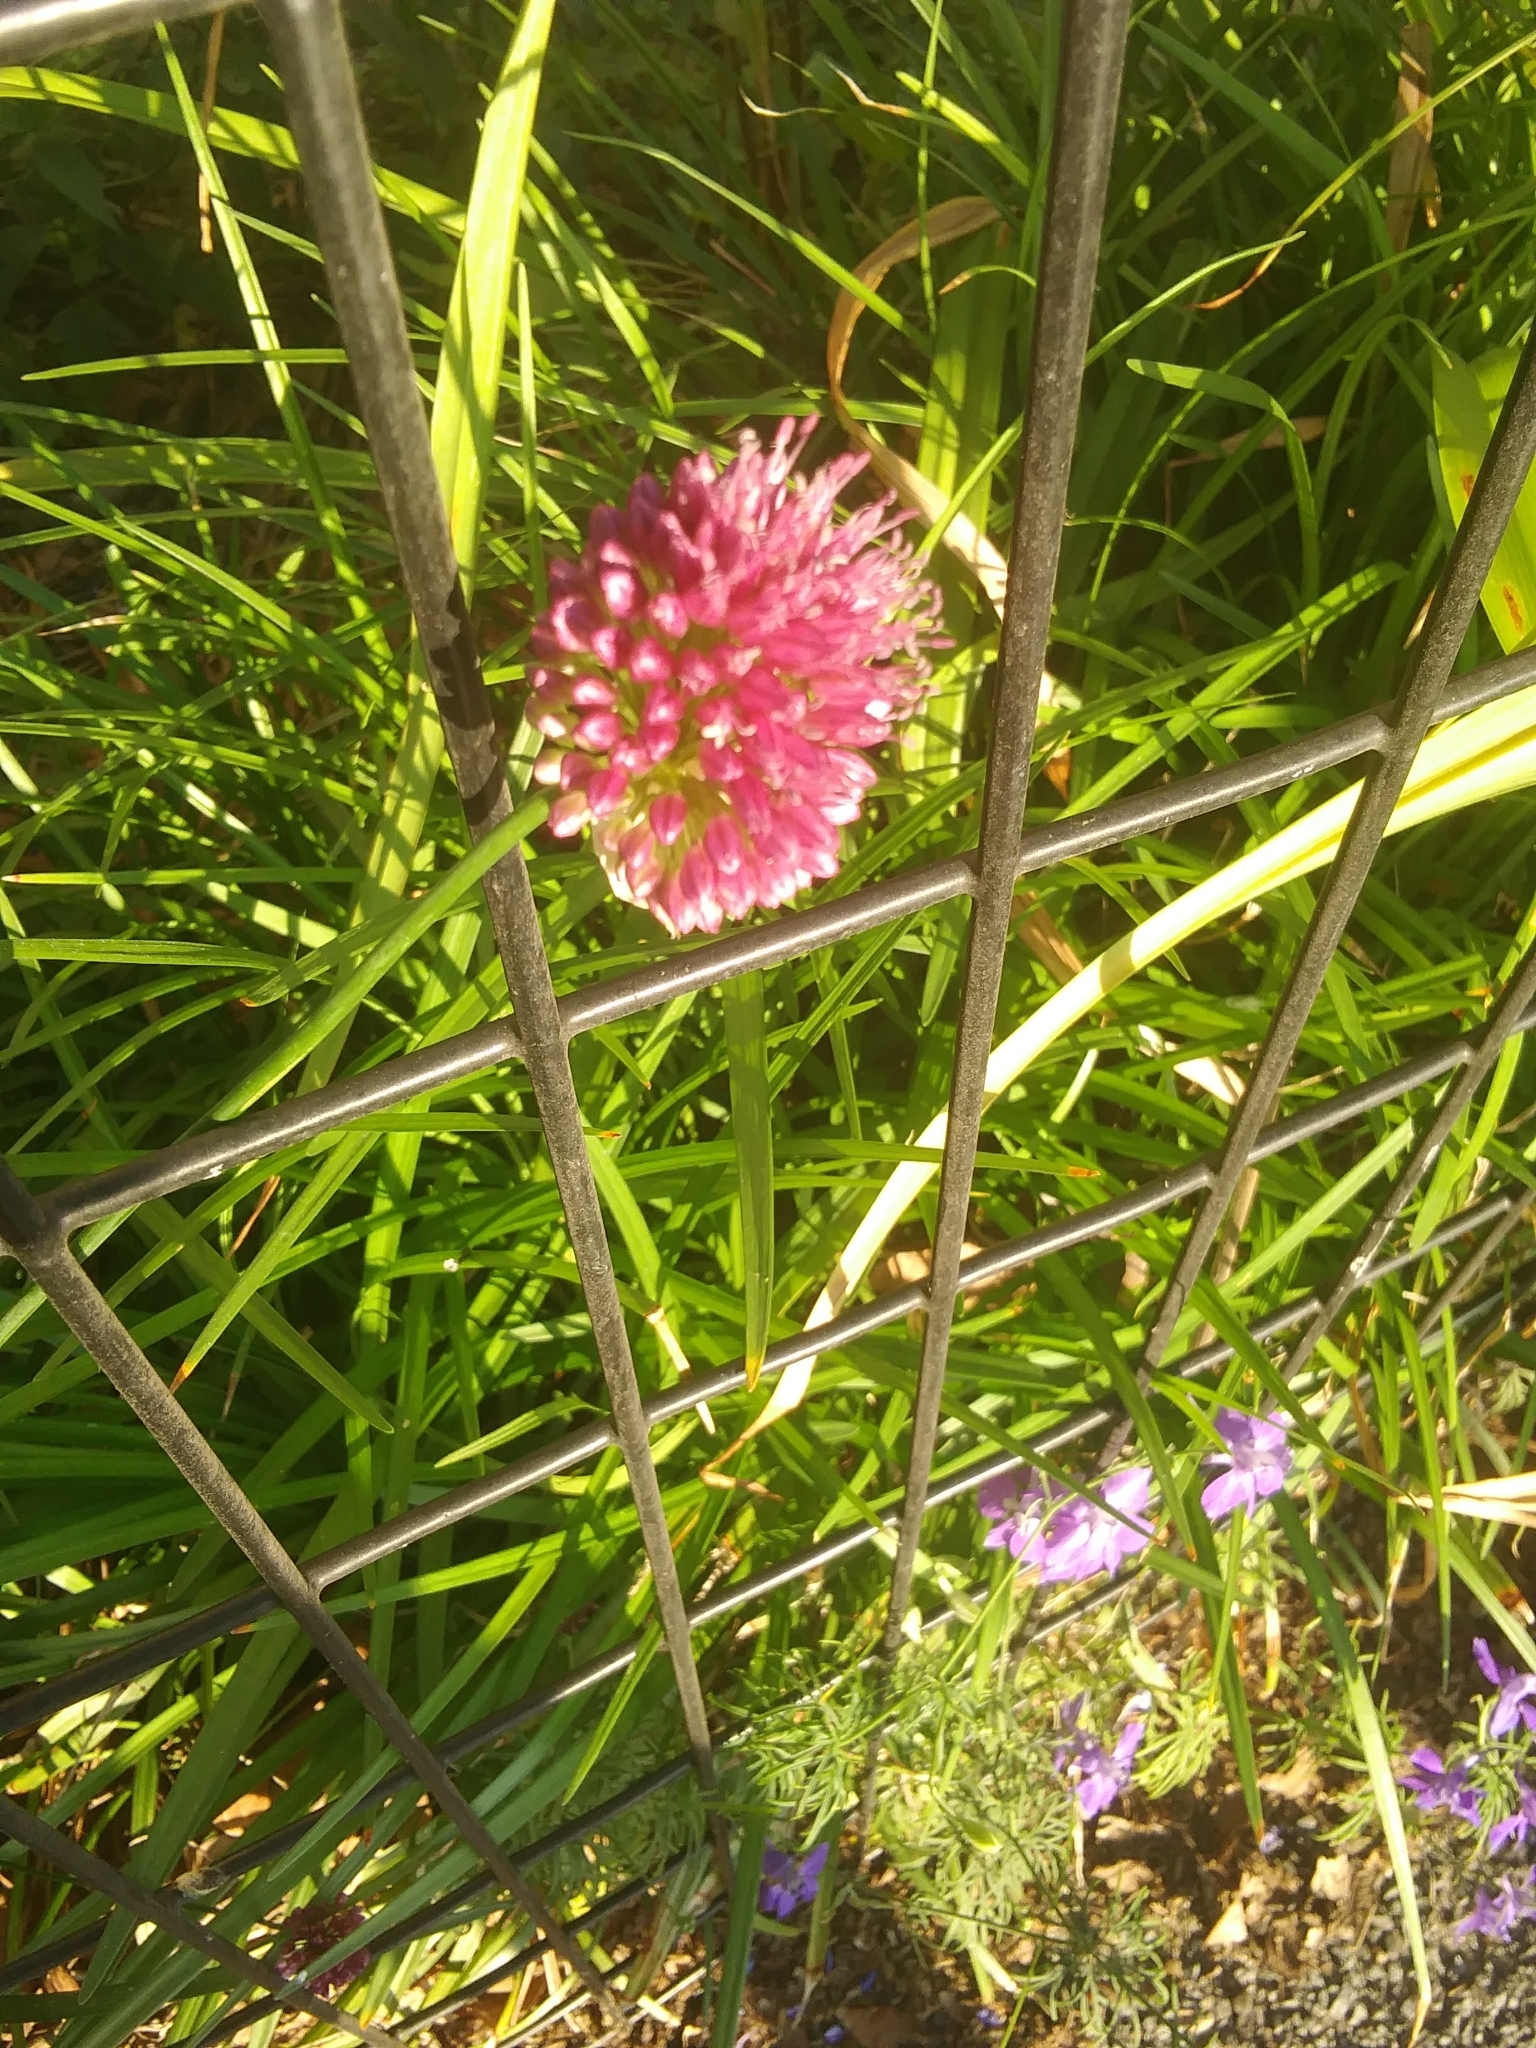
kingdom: Plantae
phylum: Tracheophyta
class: Magnoliopsida
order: Fabales
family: Fabaceae
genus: Trifolium
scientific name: Trifolium pratense
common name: Red clover
